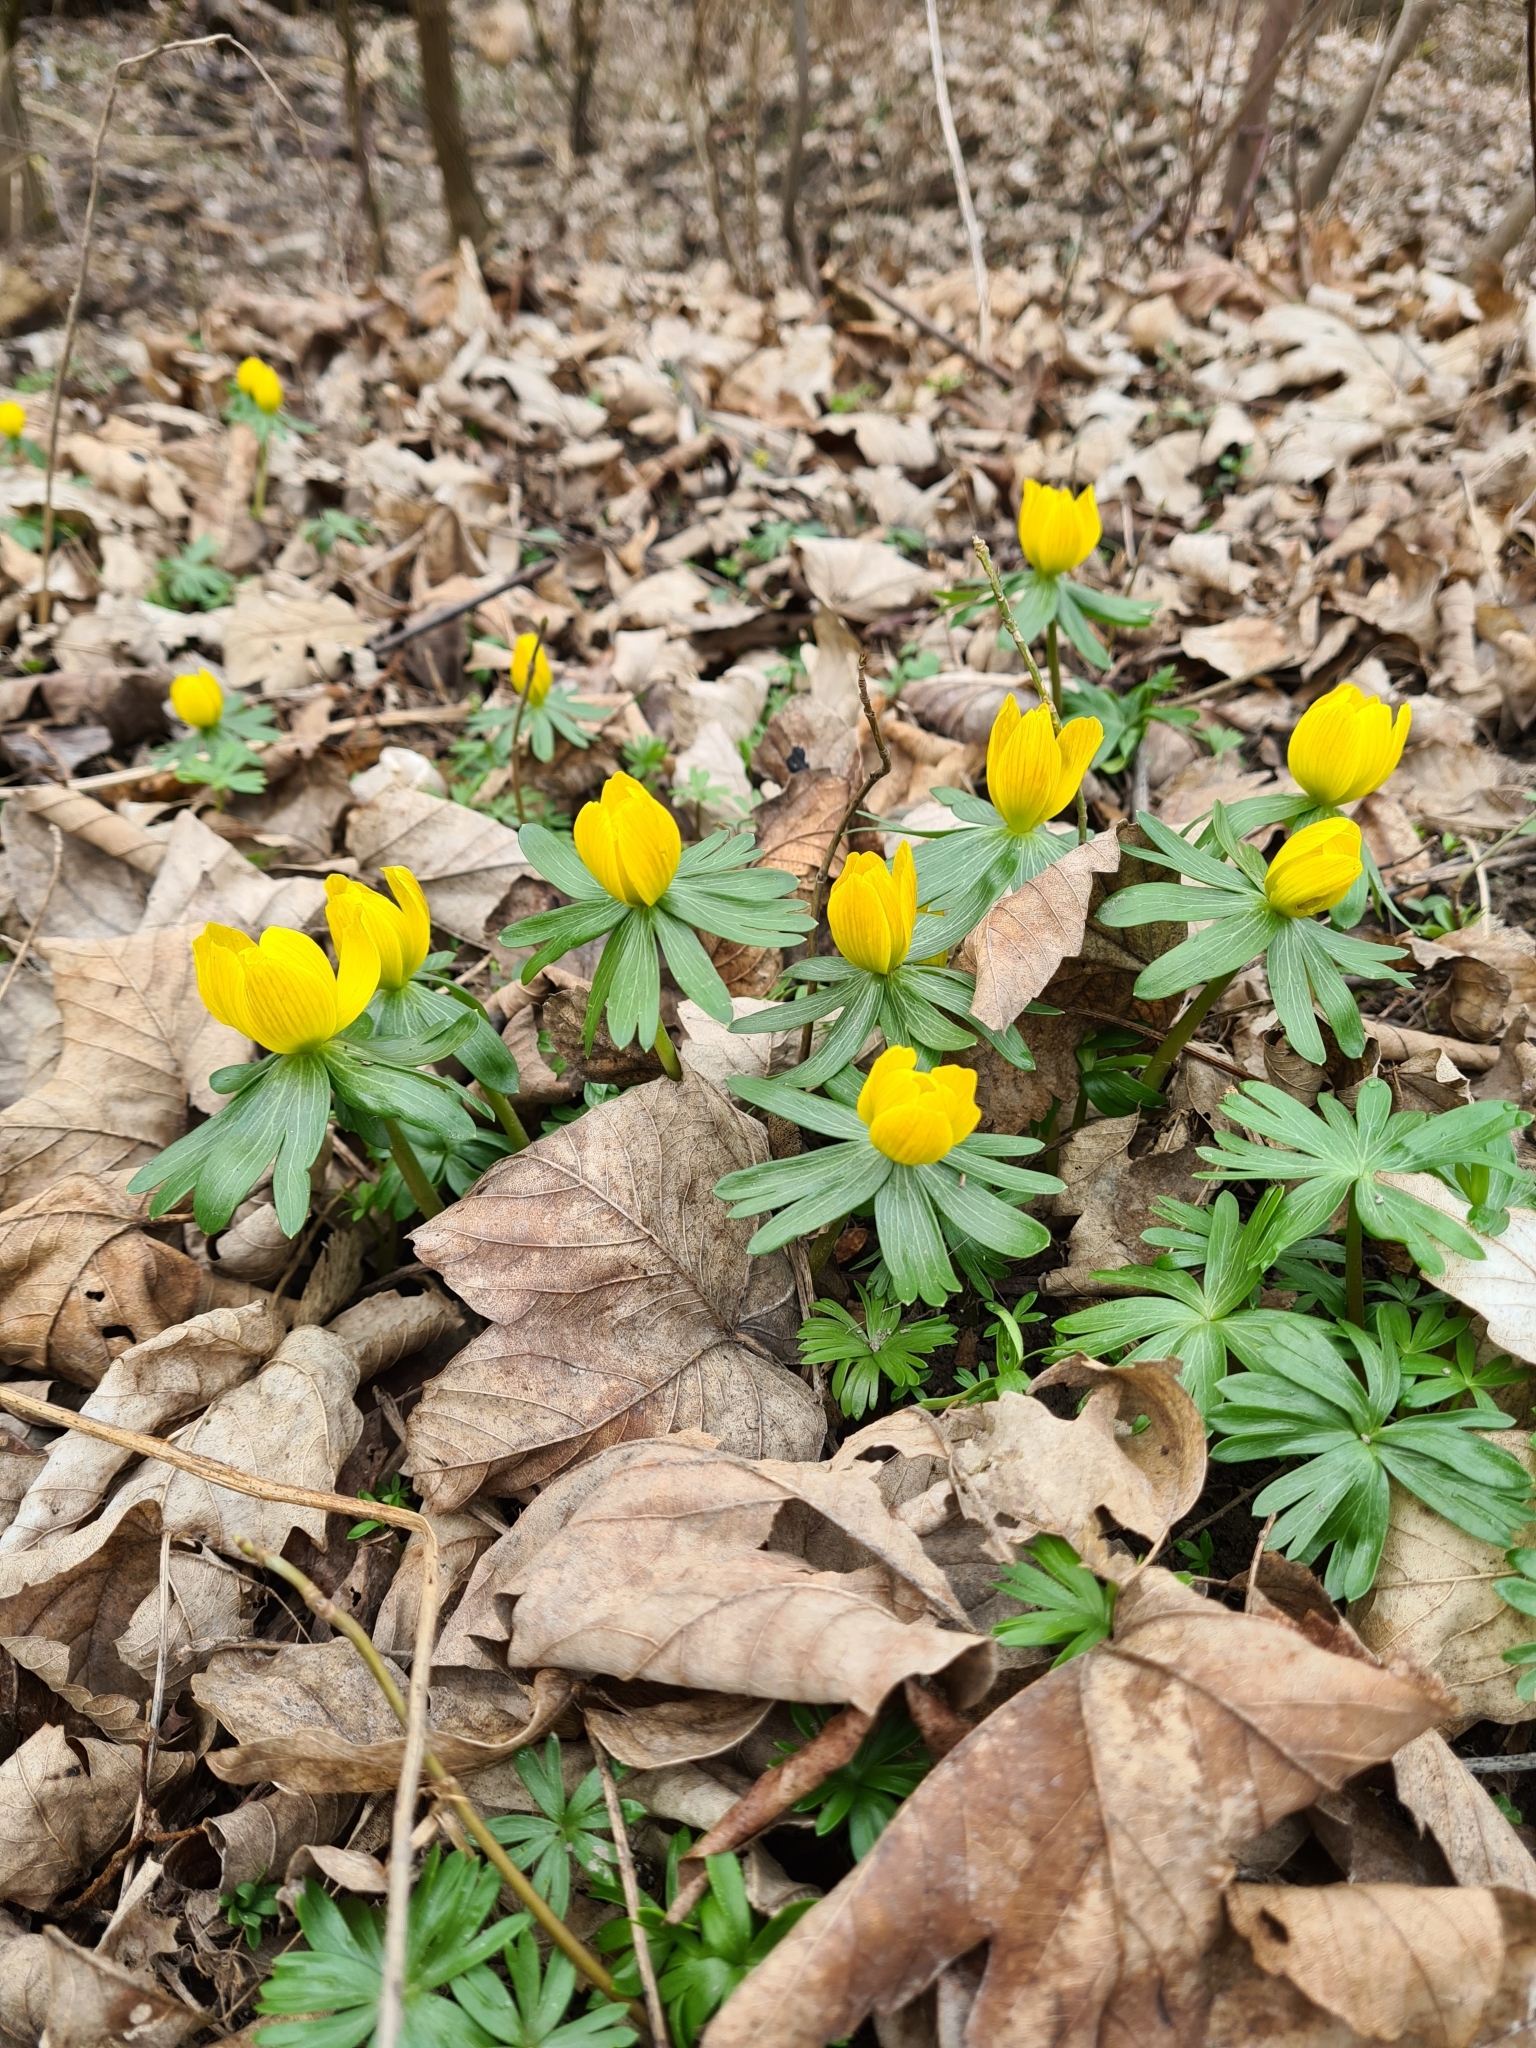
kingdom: Plantae
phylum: Tracheophyta
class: Magnoliopsida
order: Ranunculales
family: Ranunculaceae
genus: Eranthis
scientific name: Eranthis hyemalis
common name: Winter aconite
